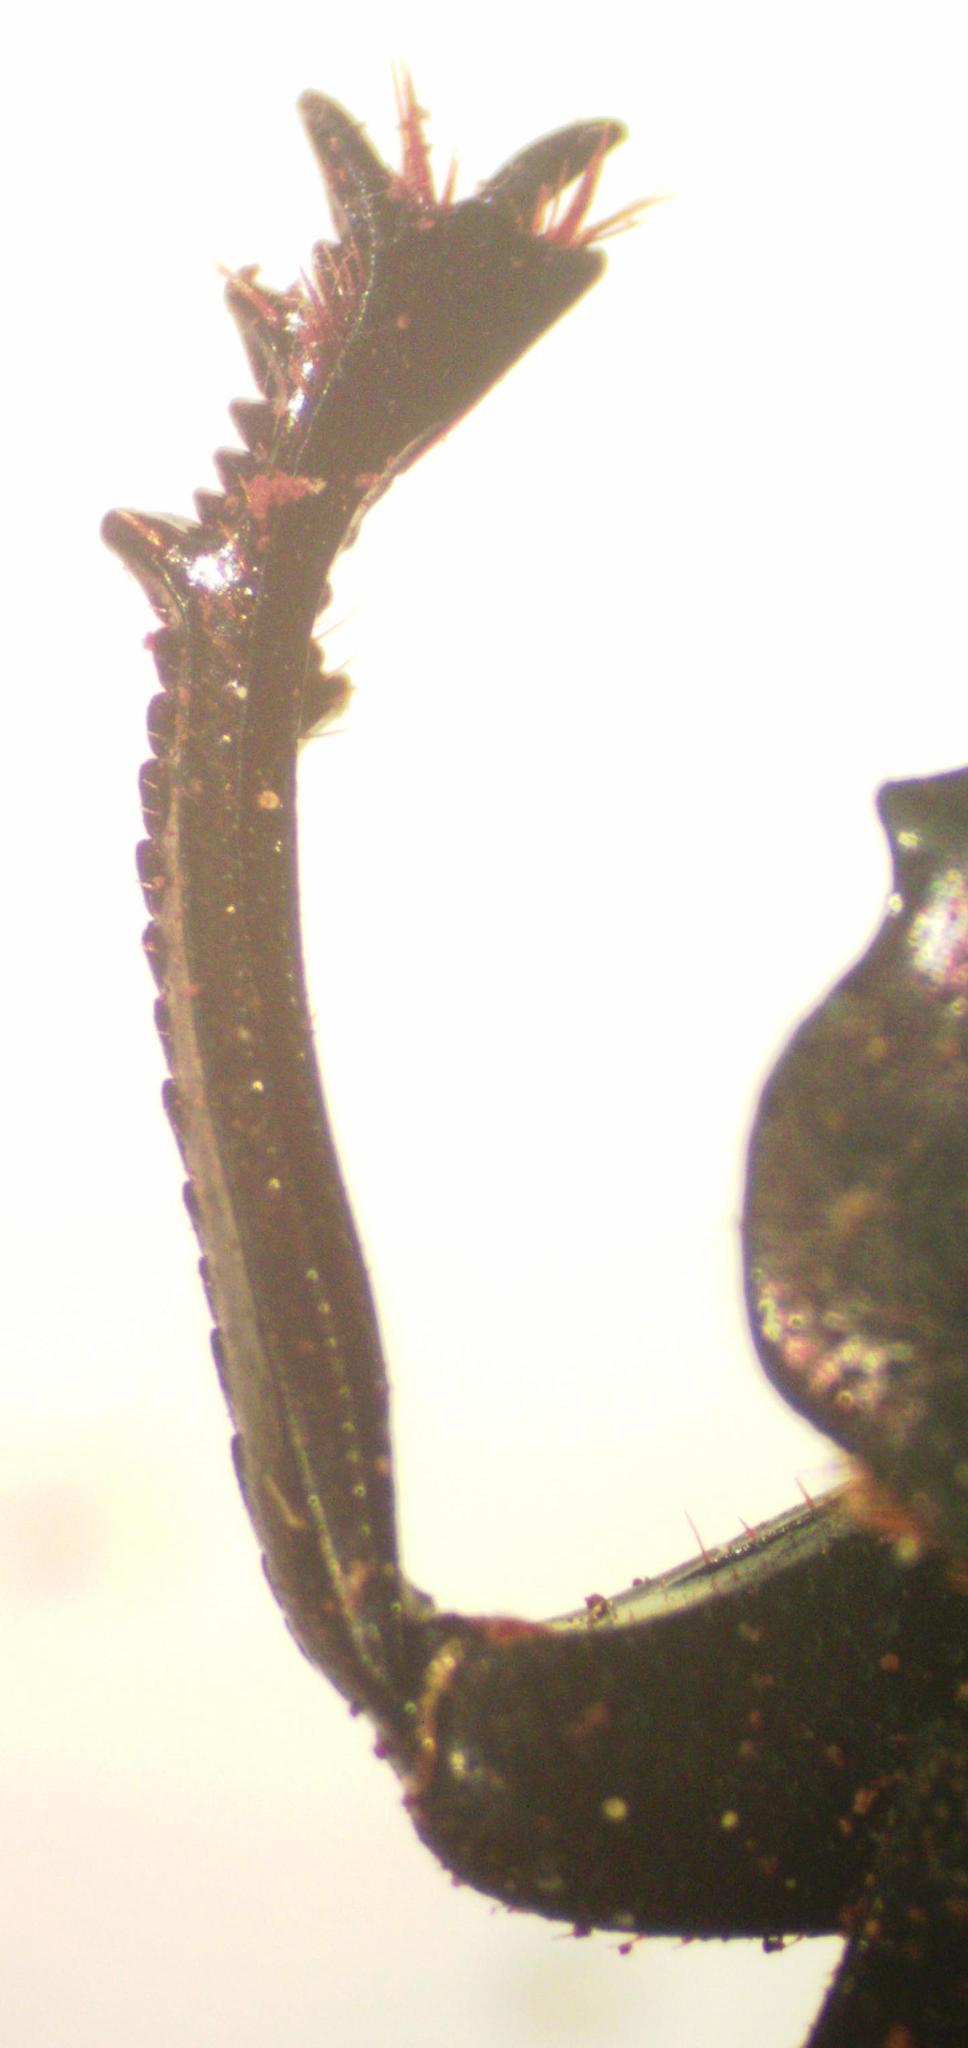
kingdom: Animalia
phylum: Arthropoda
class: Insecta
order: Coleoptera
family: Scarabaeidae
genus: Deltochilum
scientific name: Deltochilum lobipes
